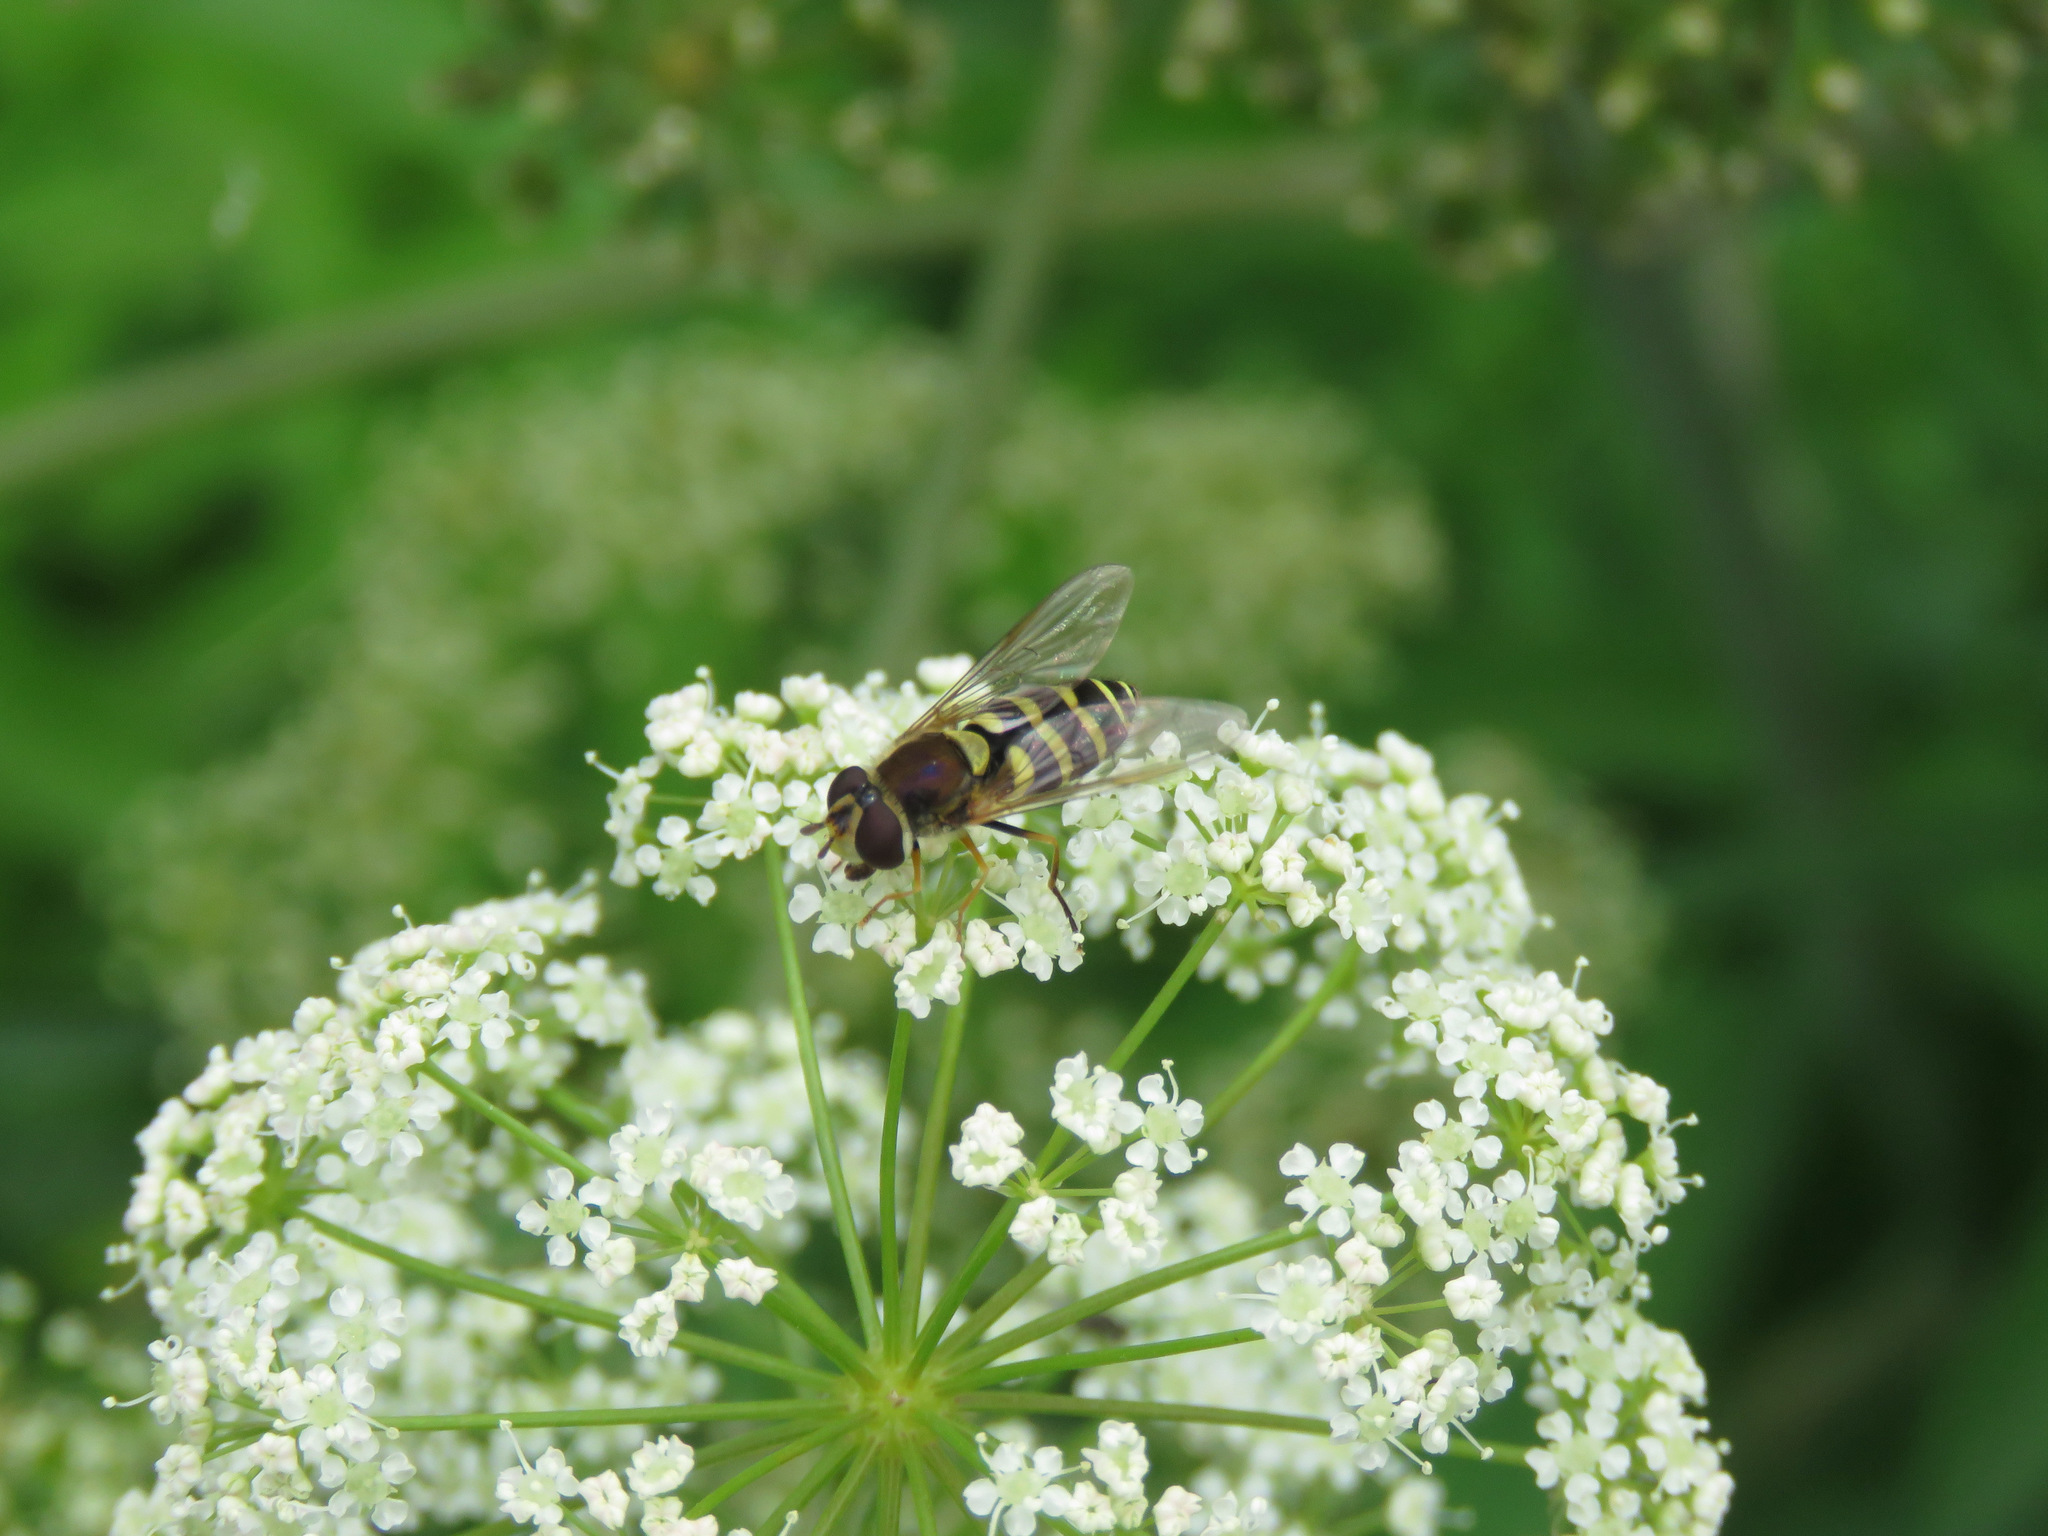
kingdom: Animalia
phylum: Arthropoda
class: Insecta
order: Diptera
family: Syrphidae
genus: Syrphus
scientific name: Syrphus
